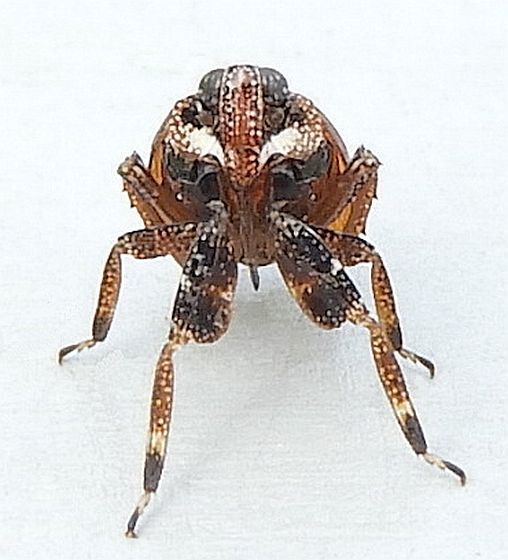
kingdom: Animalia
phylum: Arthropoda
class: Insecta
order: Hemiptera
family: Dictyopharidae
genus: Phylloscelis
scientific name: Phylloscelis rubra
